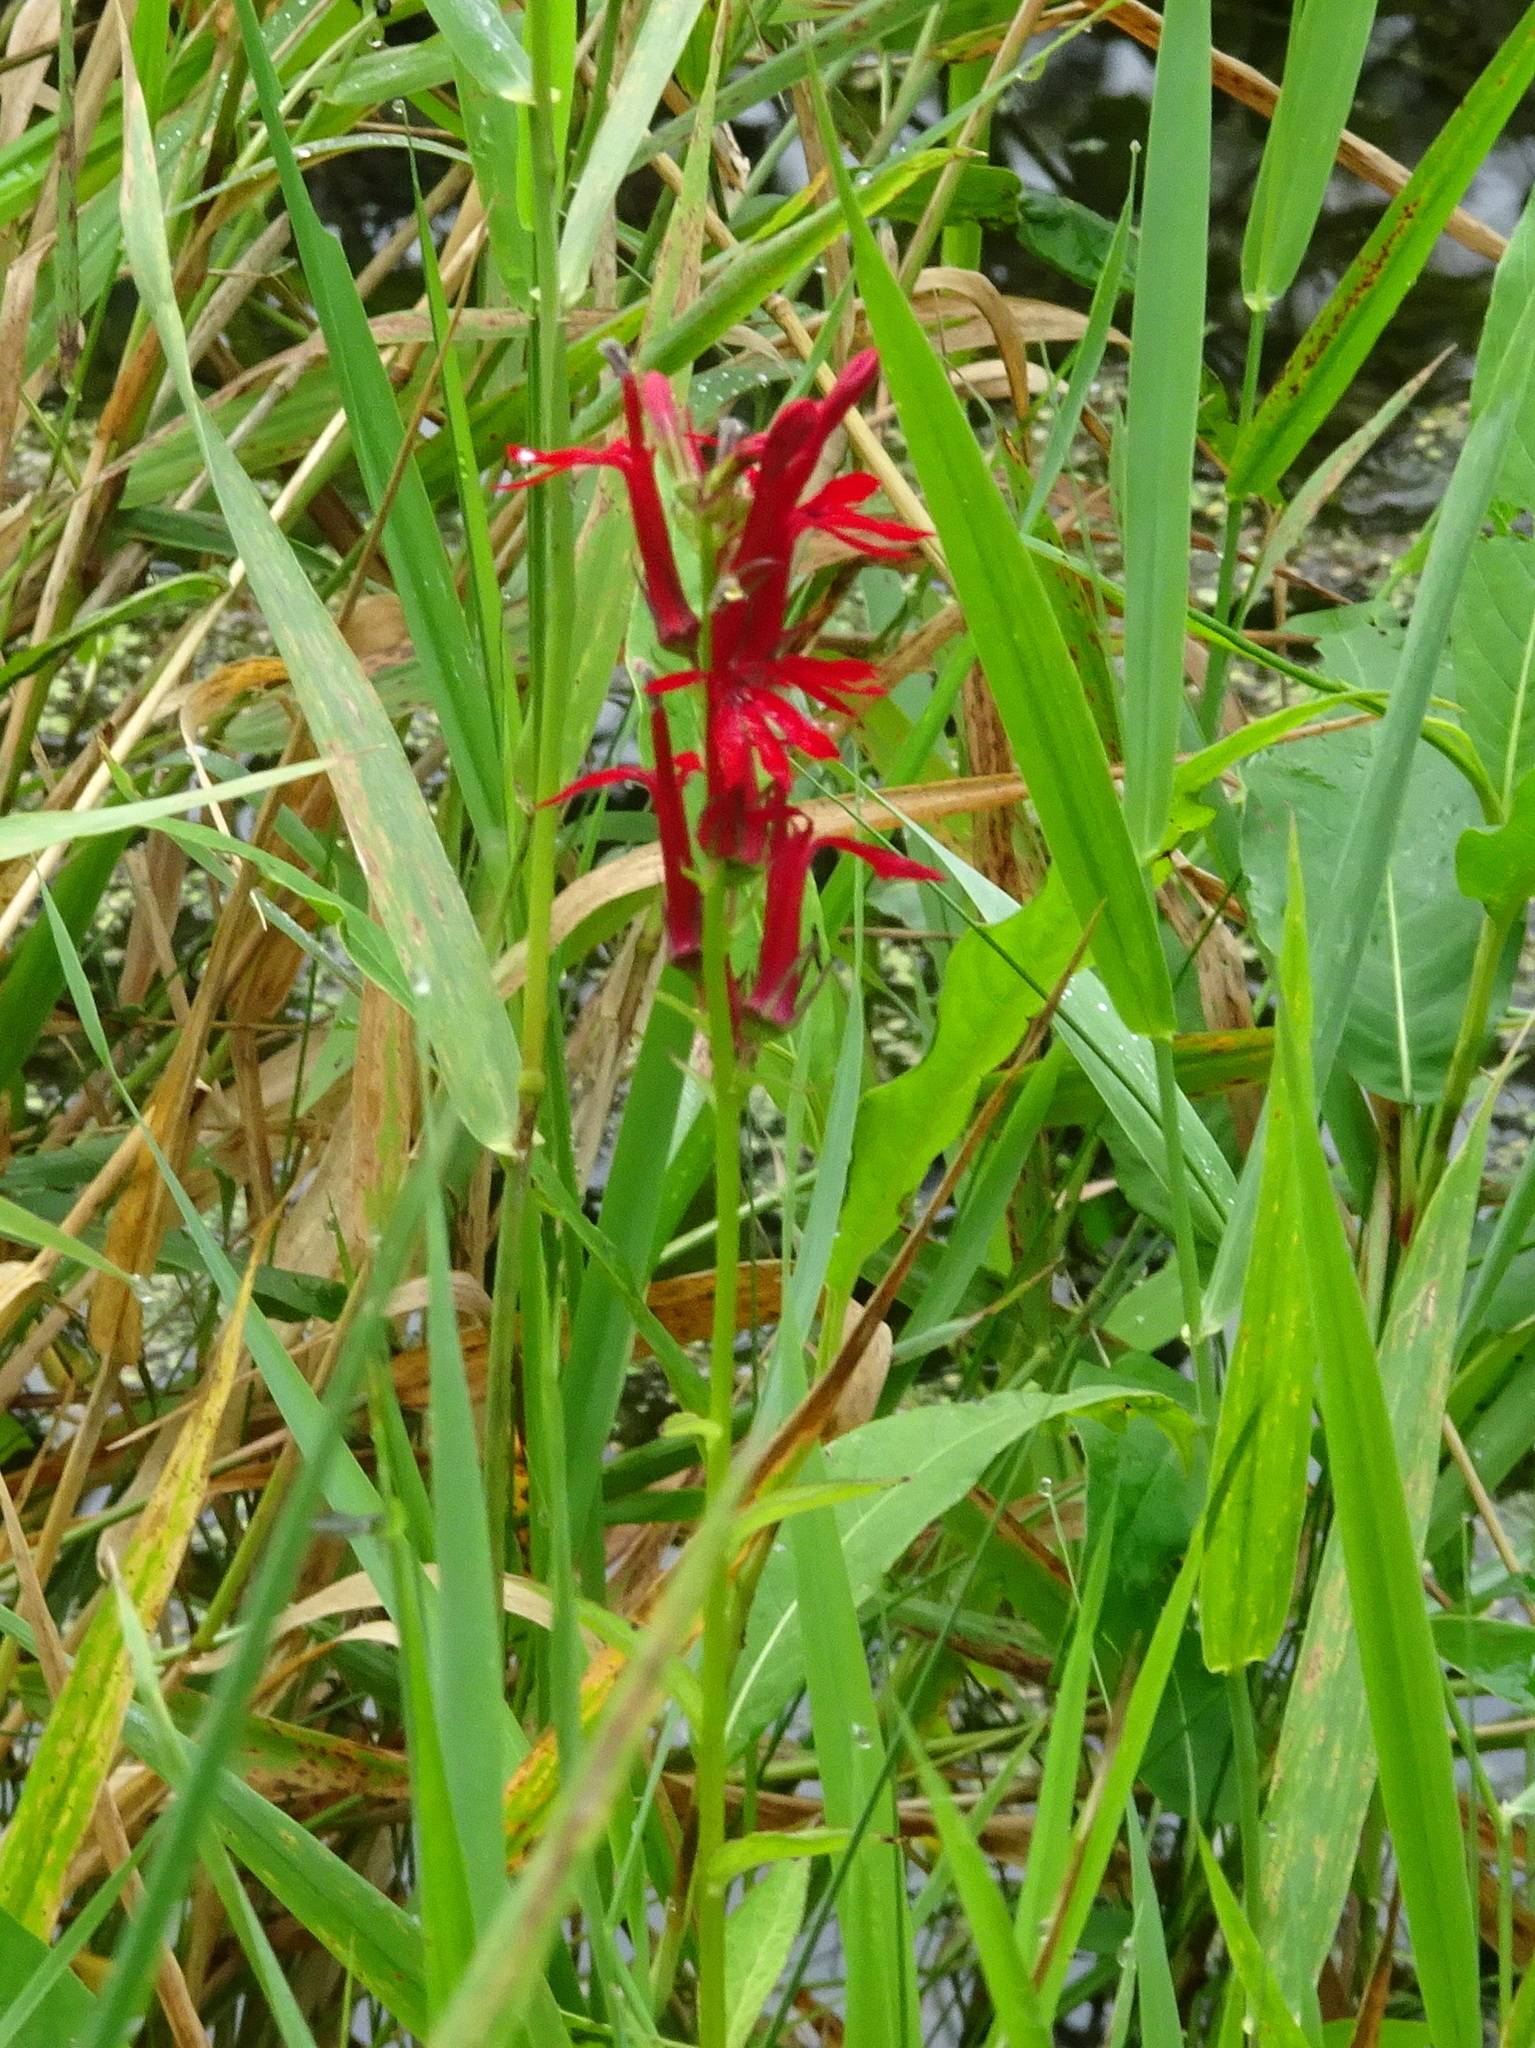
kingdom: Plantae
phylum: Tracheophyta
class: Magnoliopsida
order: Asterales
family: Campanulaceae
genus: Lobelia
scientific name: Lobelia cardinalis
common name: Cardinal flower
